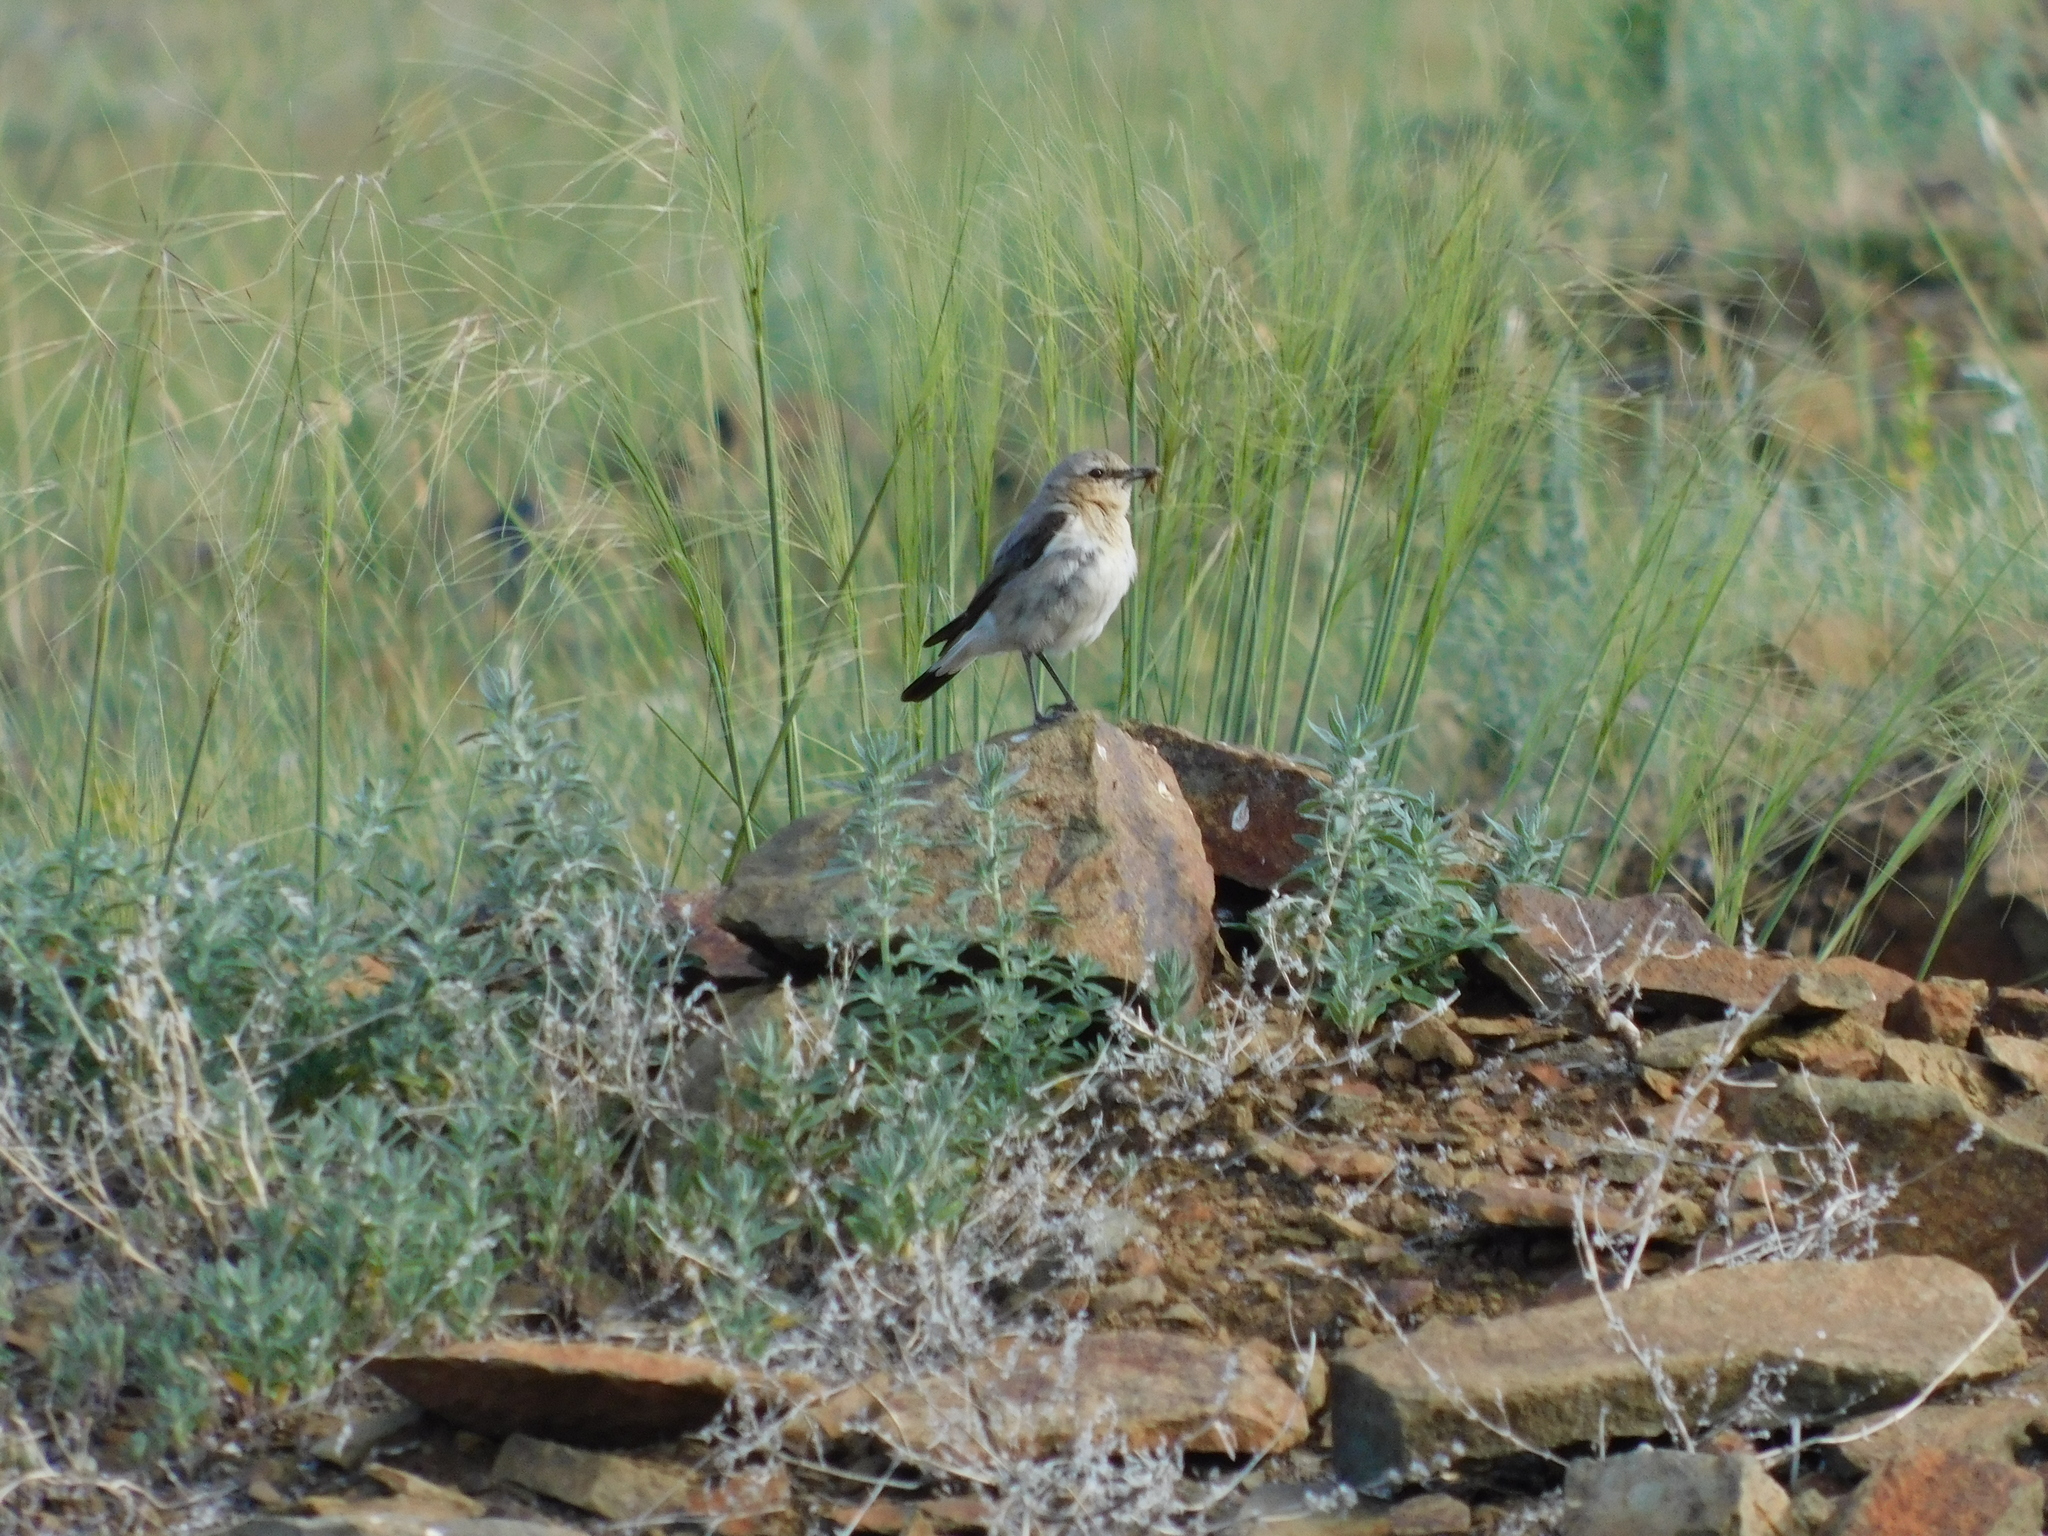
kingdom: Animalia
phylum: Chordata
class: Aves
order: Passeriformes
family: Muscicapidae
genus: Oenanthe
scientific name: Oenanthe oenanthe
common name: Northern wheatear
